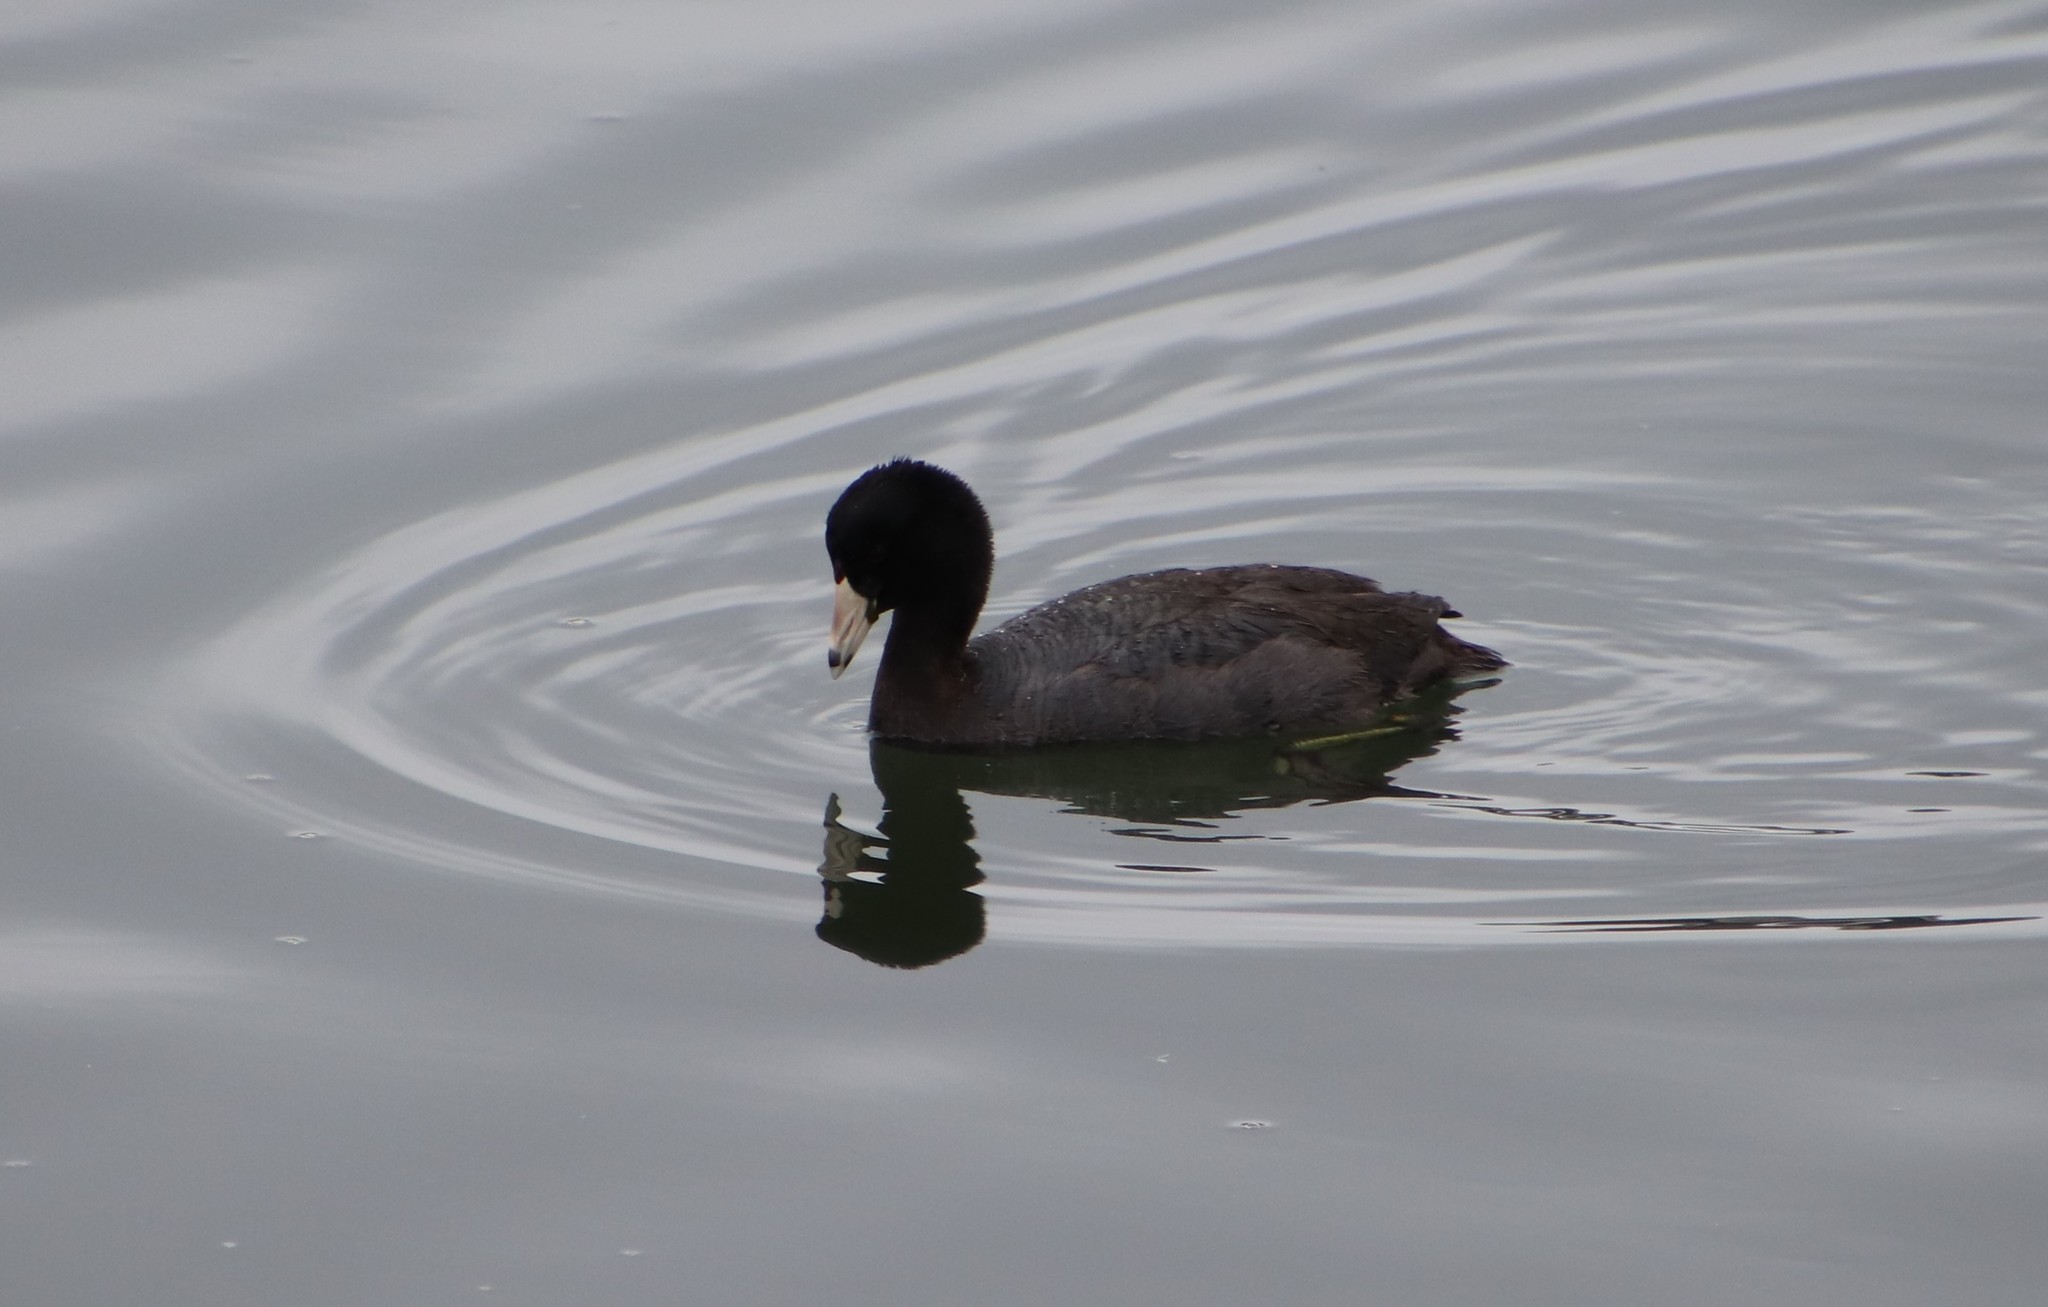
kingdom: Animalia
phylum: Chordata
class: Aves
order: Gruiformes
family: Rallidae
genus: Fulica
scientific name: Fulica americana
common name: American coot
